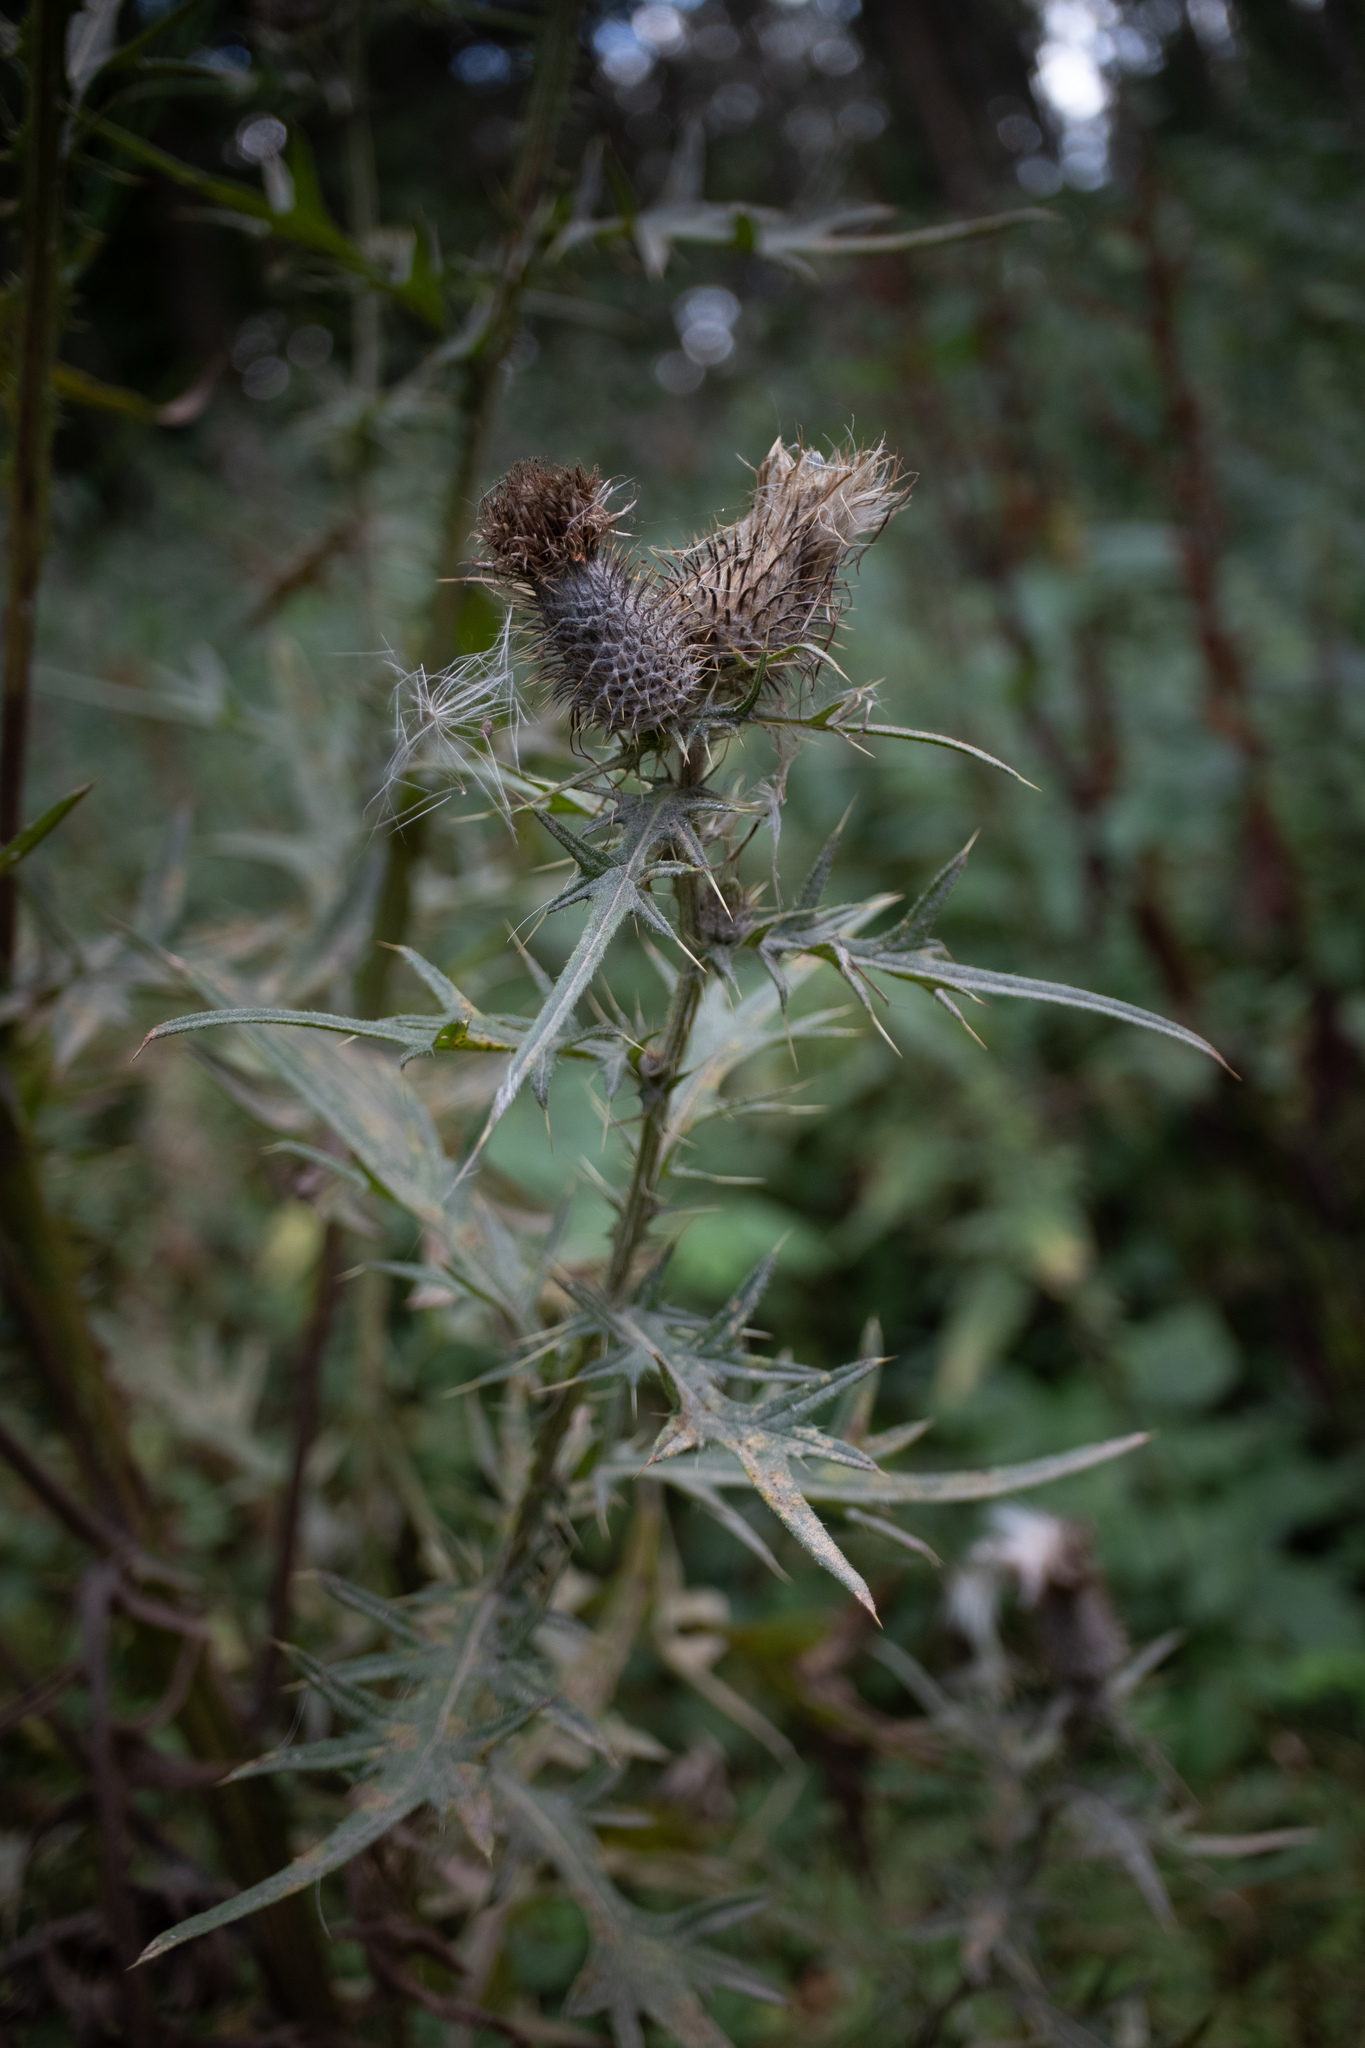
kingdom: Plantae
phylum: Tracheophyta
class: Magnoliopsida
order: Asterales
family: Asteraceae
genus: Cirsium
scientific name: Cirsium vulgare
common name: Bull thistle
